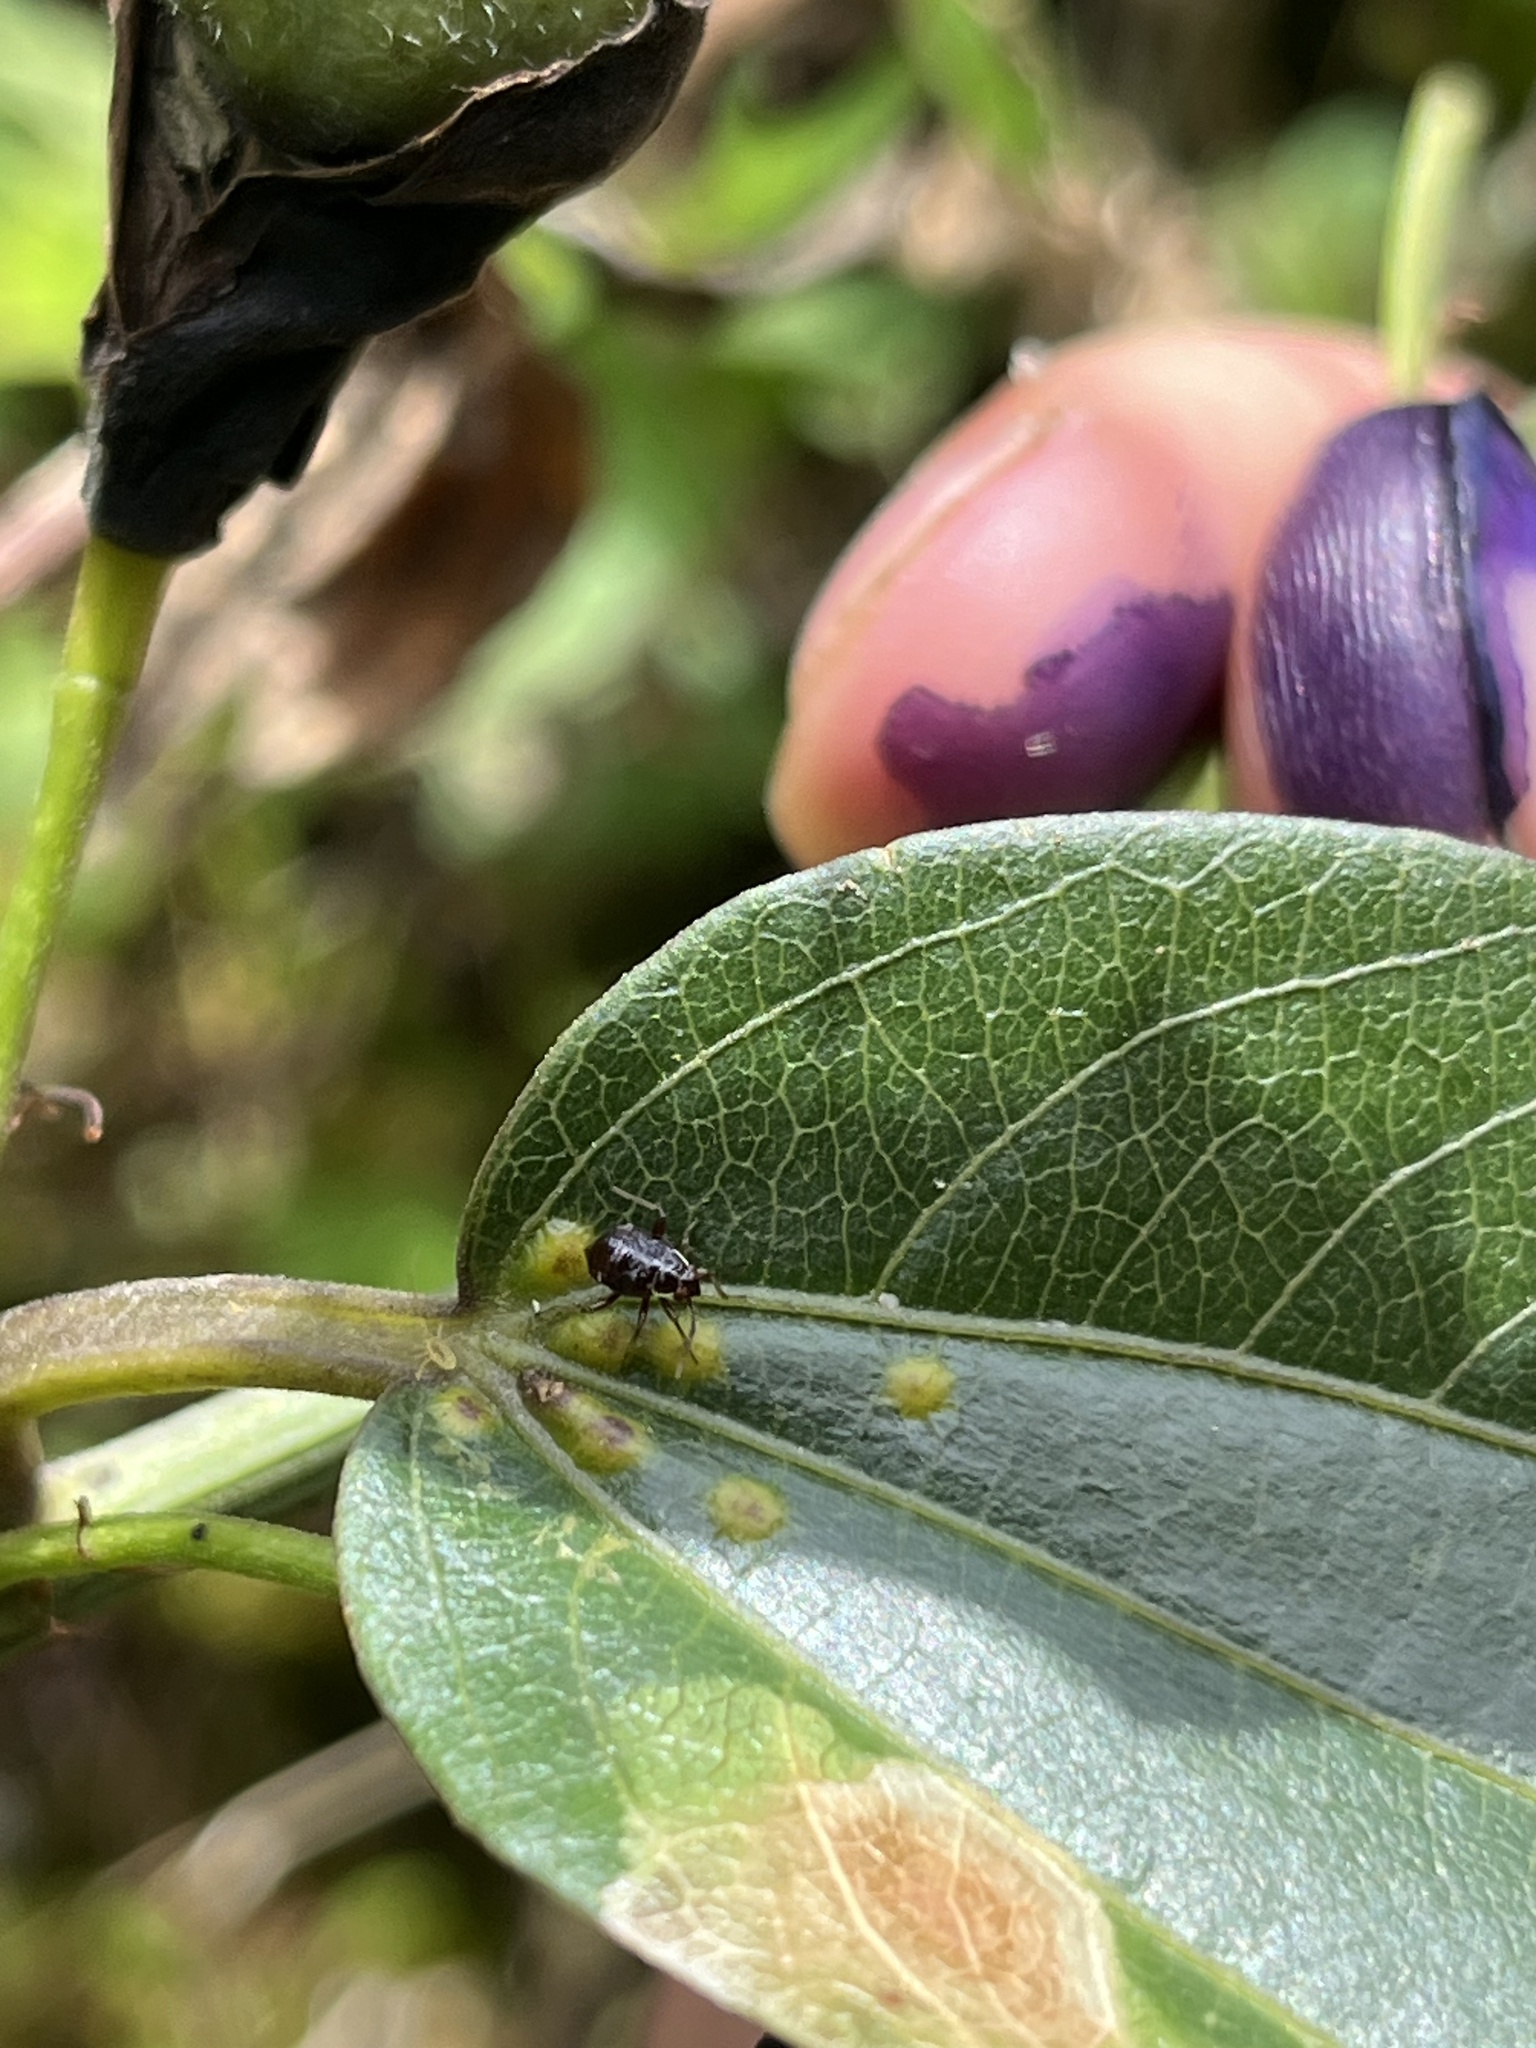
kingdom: Plantae
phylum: Tracheophyta
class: Magnoliopsida
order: Malpighiales
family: Passifloraceae
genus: Passiflora
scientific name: Passiflora chelidonea
